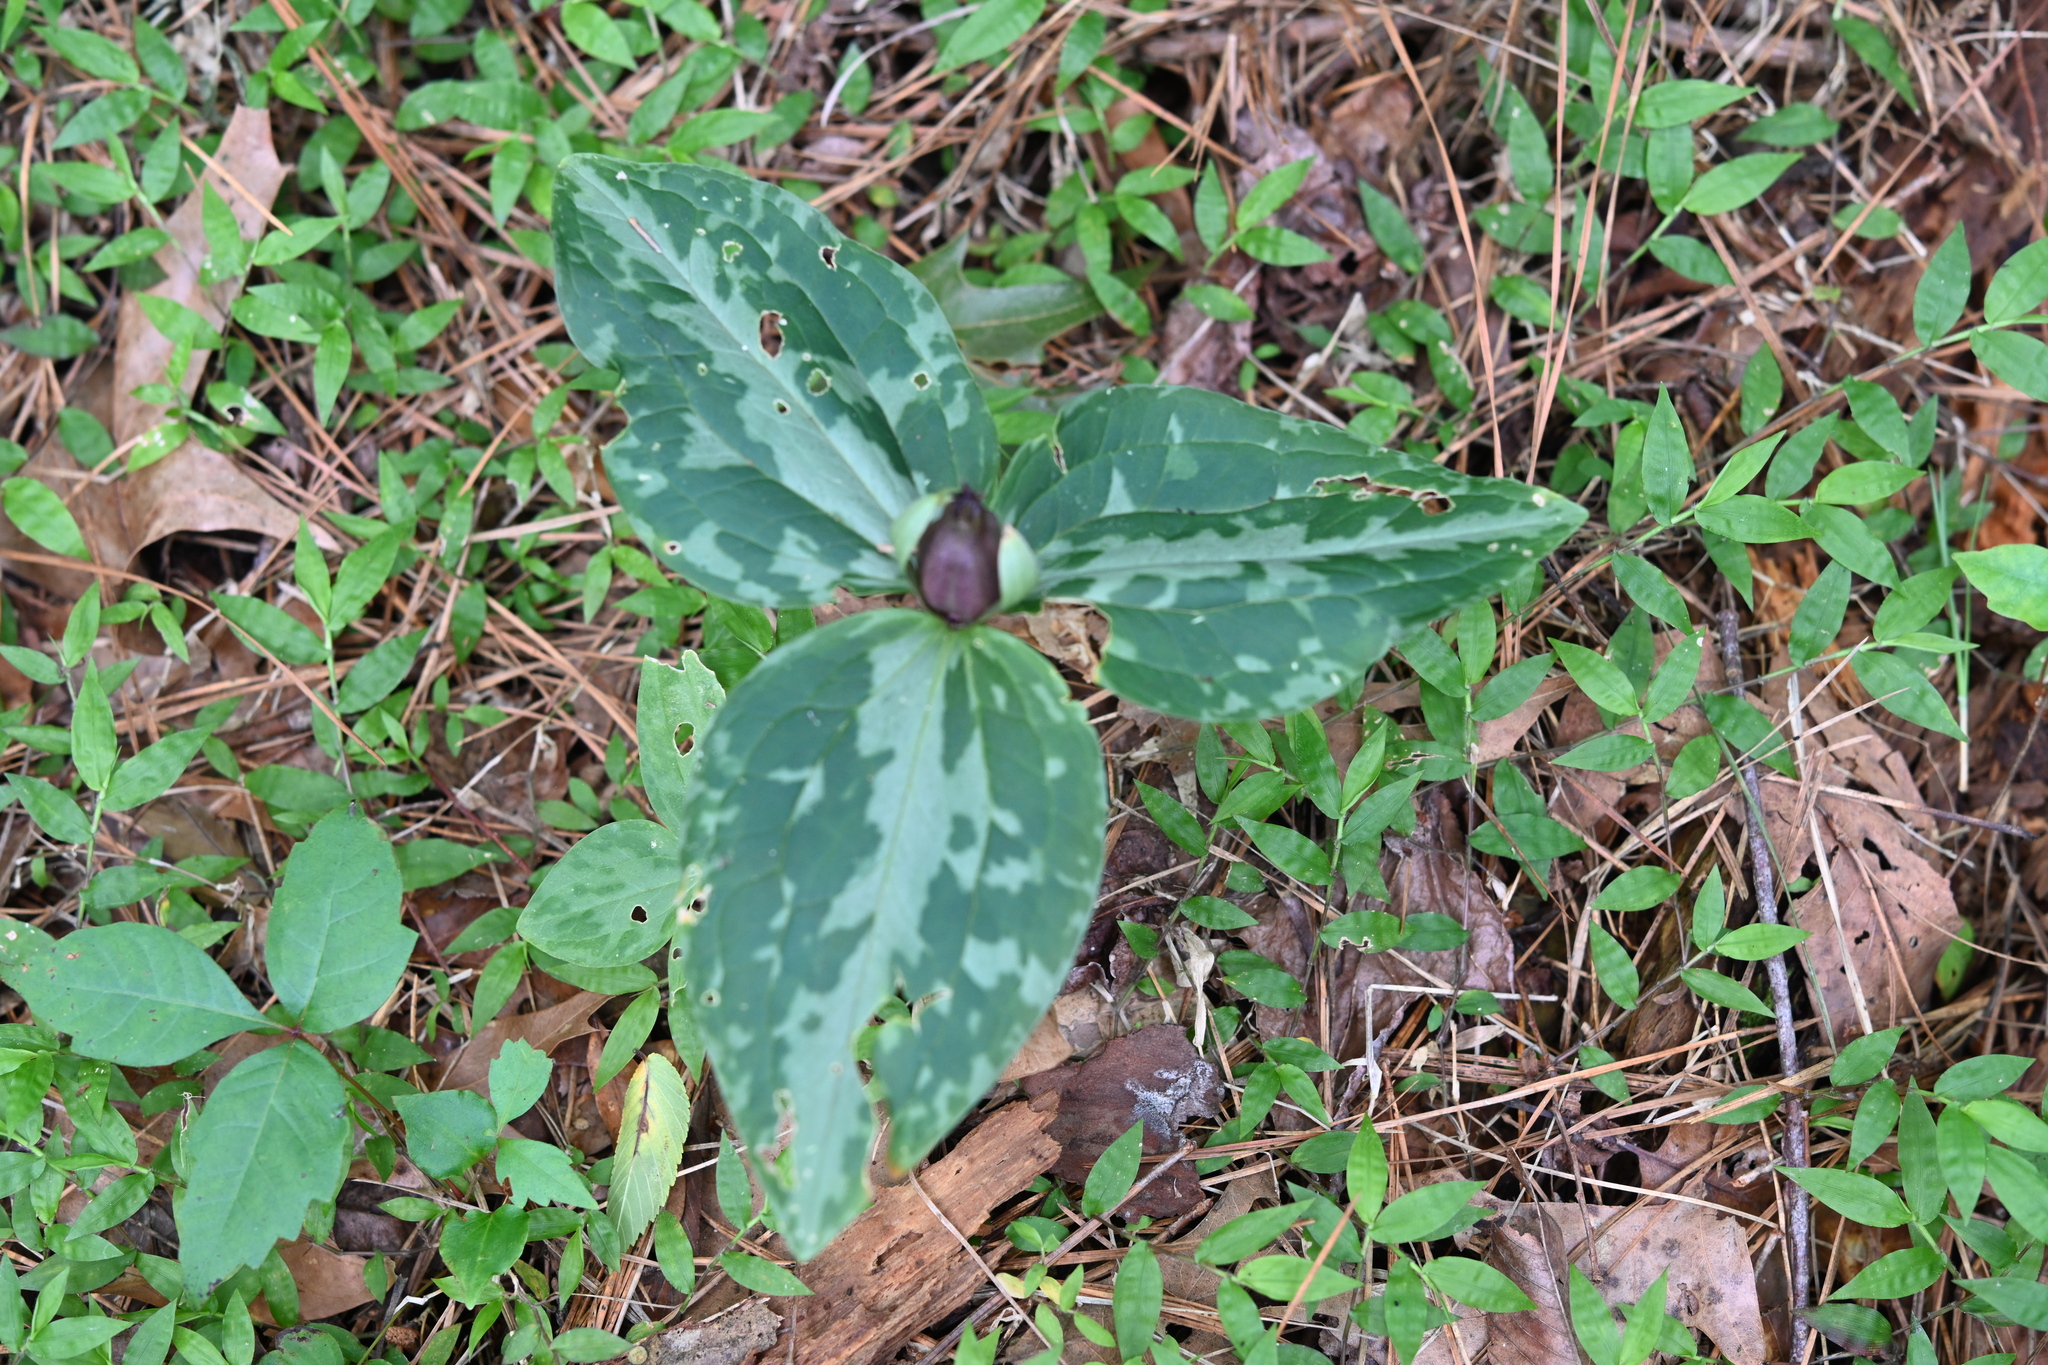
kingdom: Plantae
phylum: Tracheophyta
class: Liliopsida
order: Liliales
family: Melanthiaceae
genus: Trillium
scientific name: Trillium foetidissimum
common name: Mississippi river trillium
